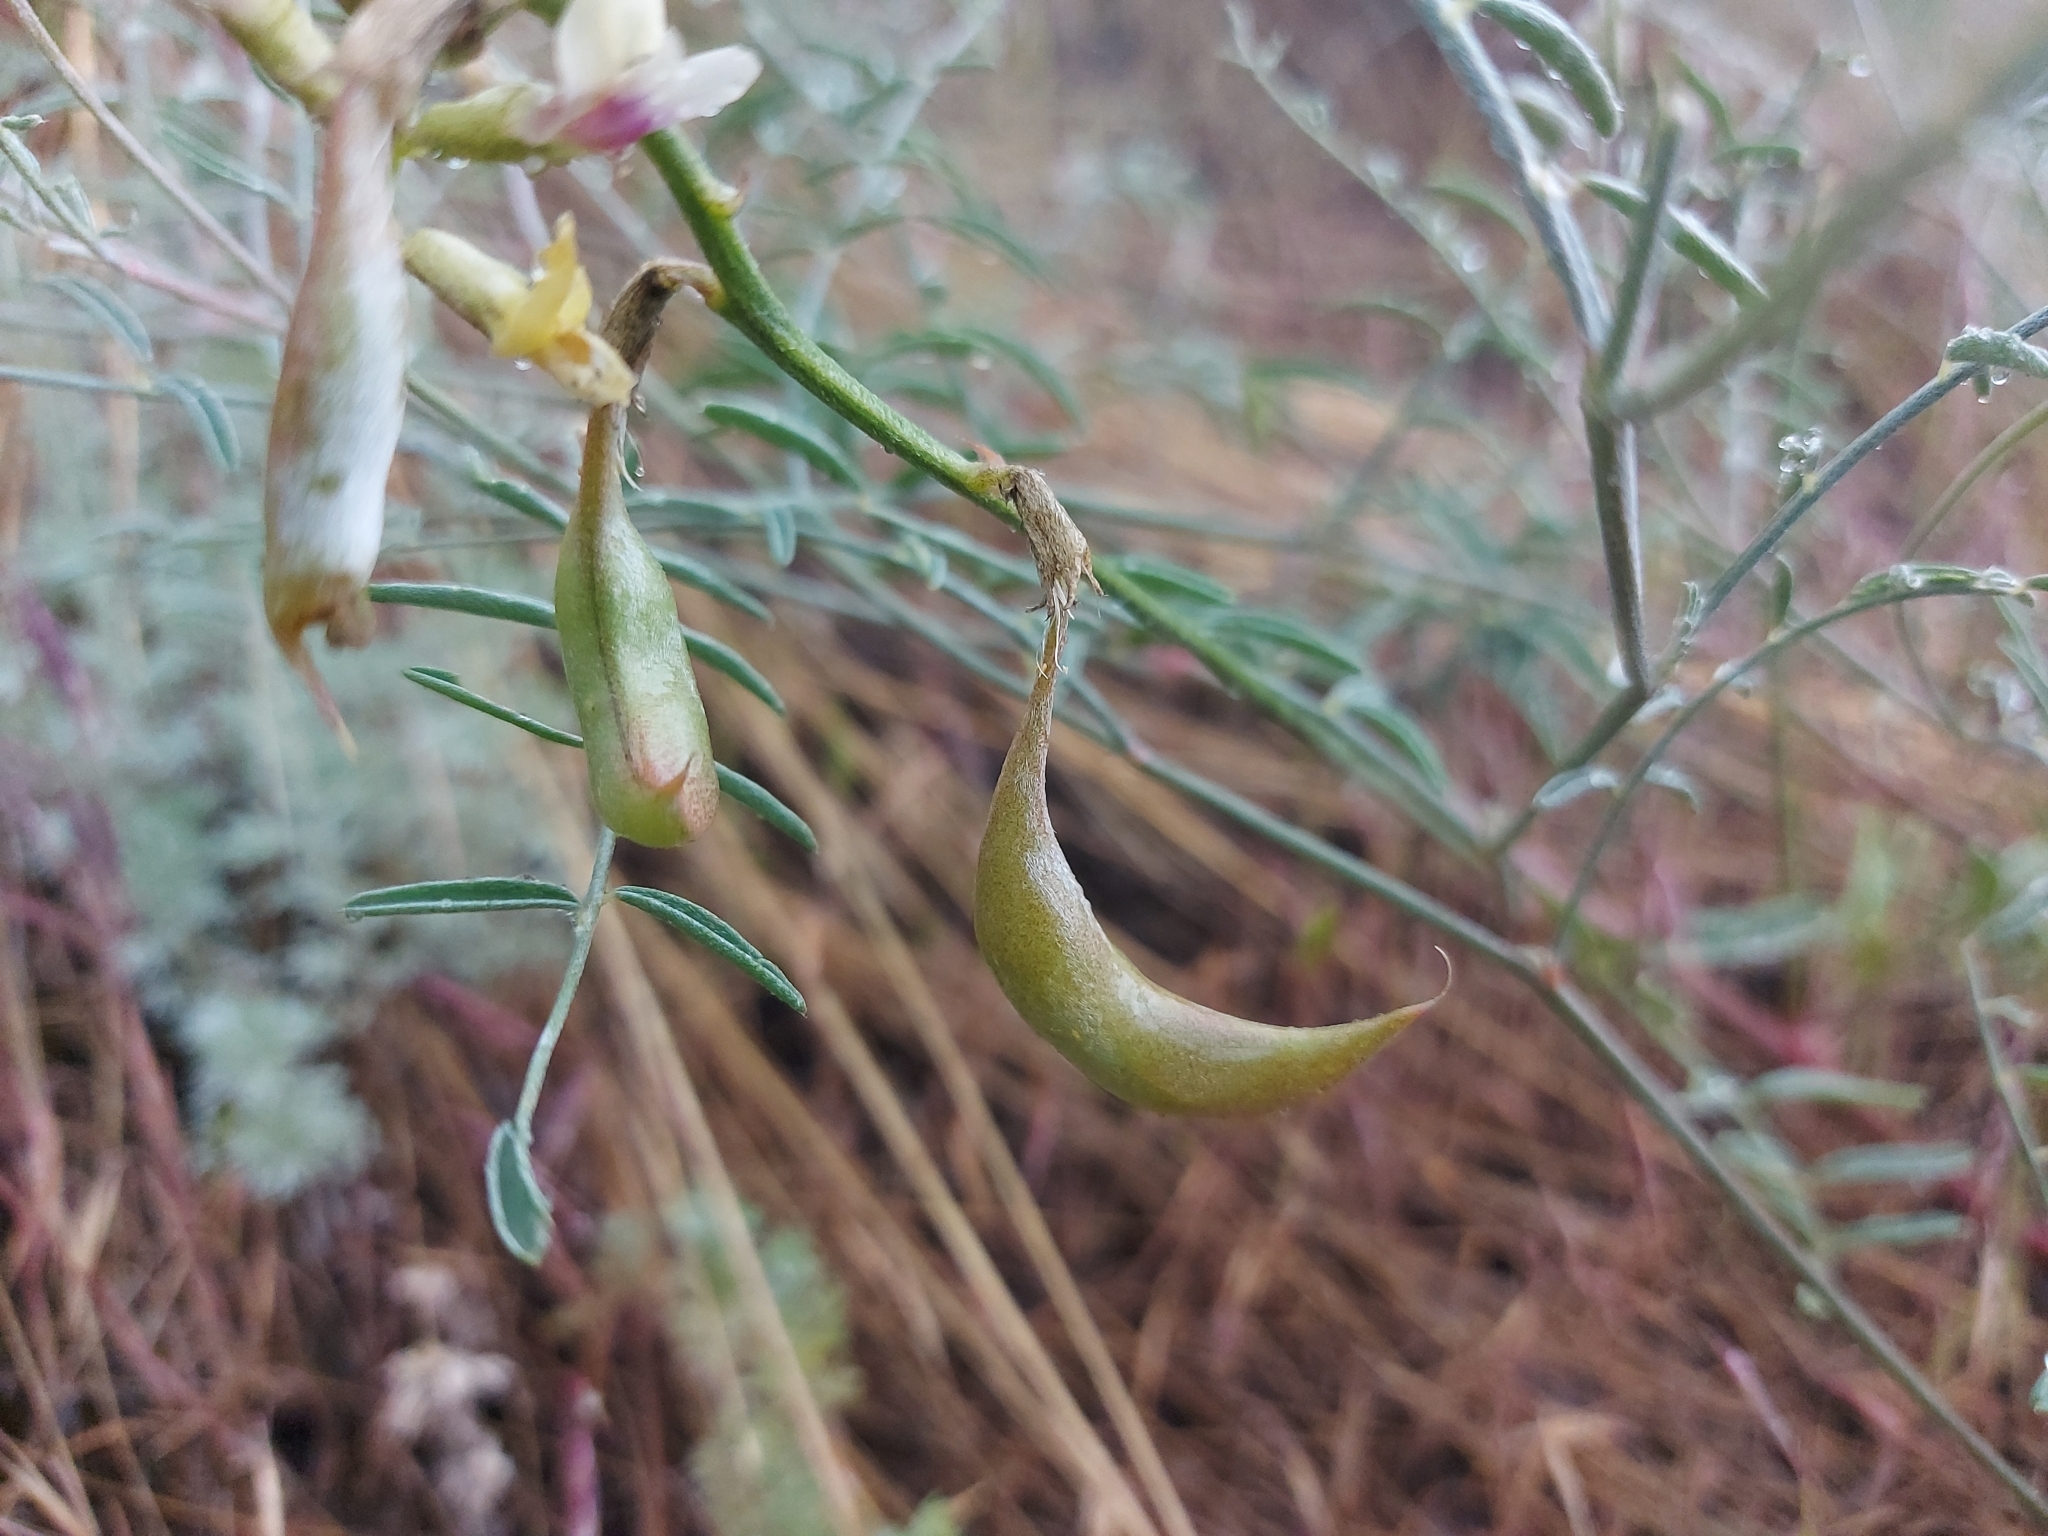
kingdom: Plantae
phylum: Tracheophyta
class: Magnoliopsida
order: Fabales
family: Fabaceae
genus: Astragalus
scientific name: Astragalus sclerocarpus
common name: The dalles milk-vetch
